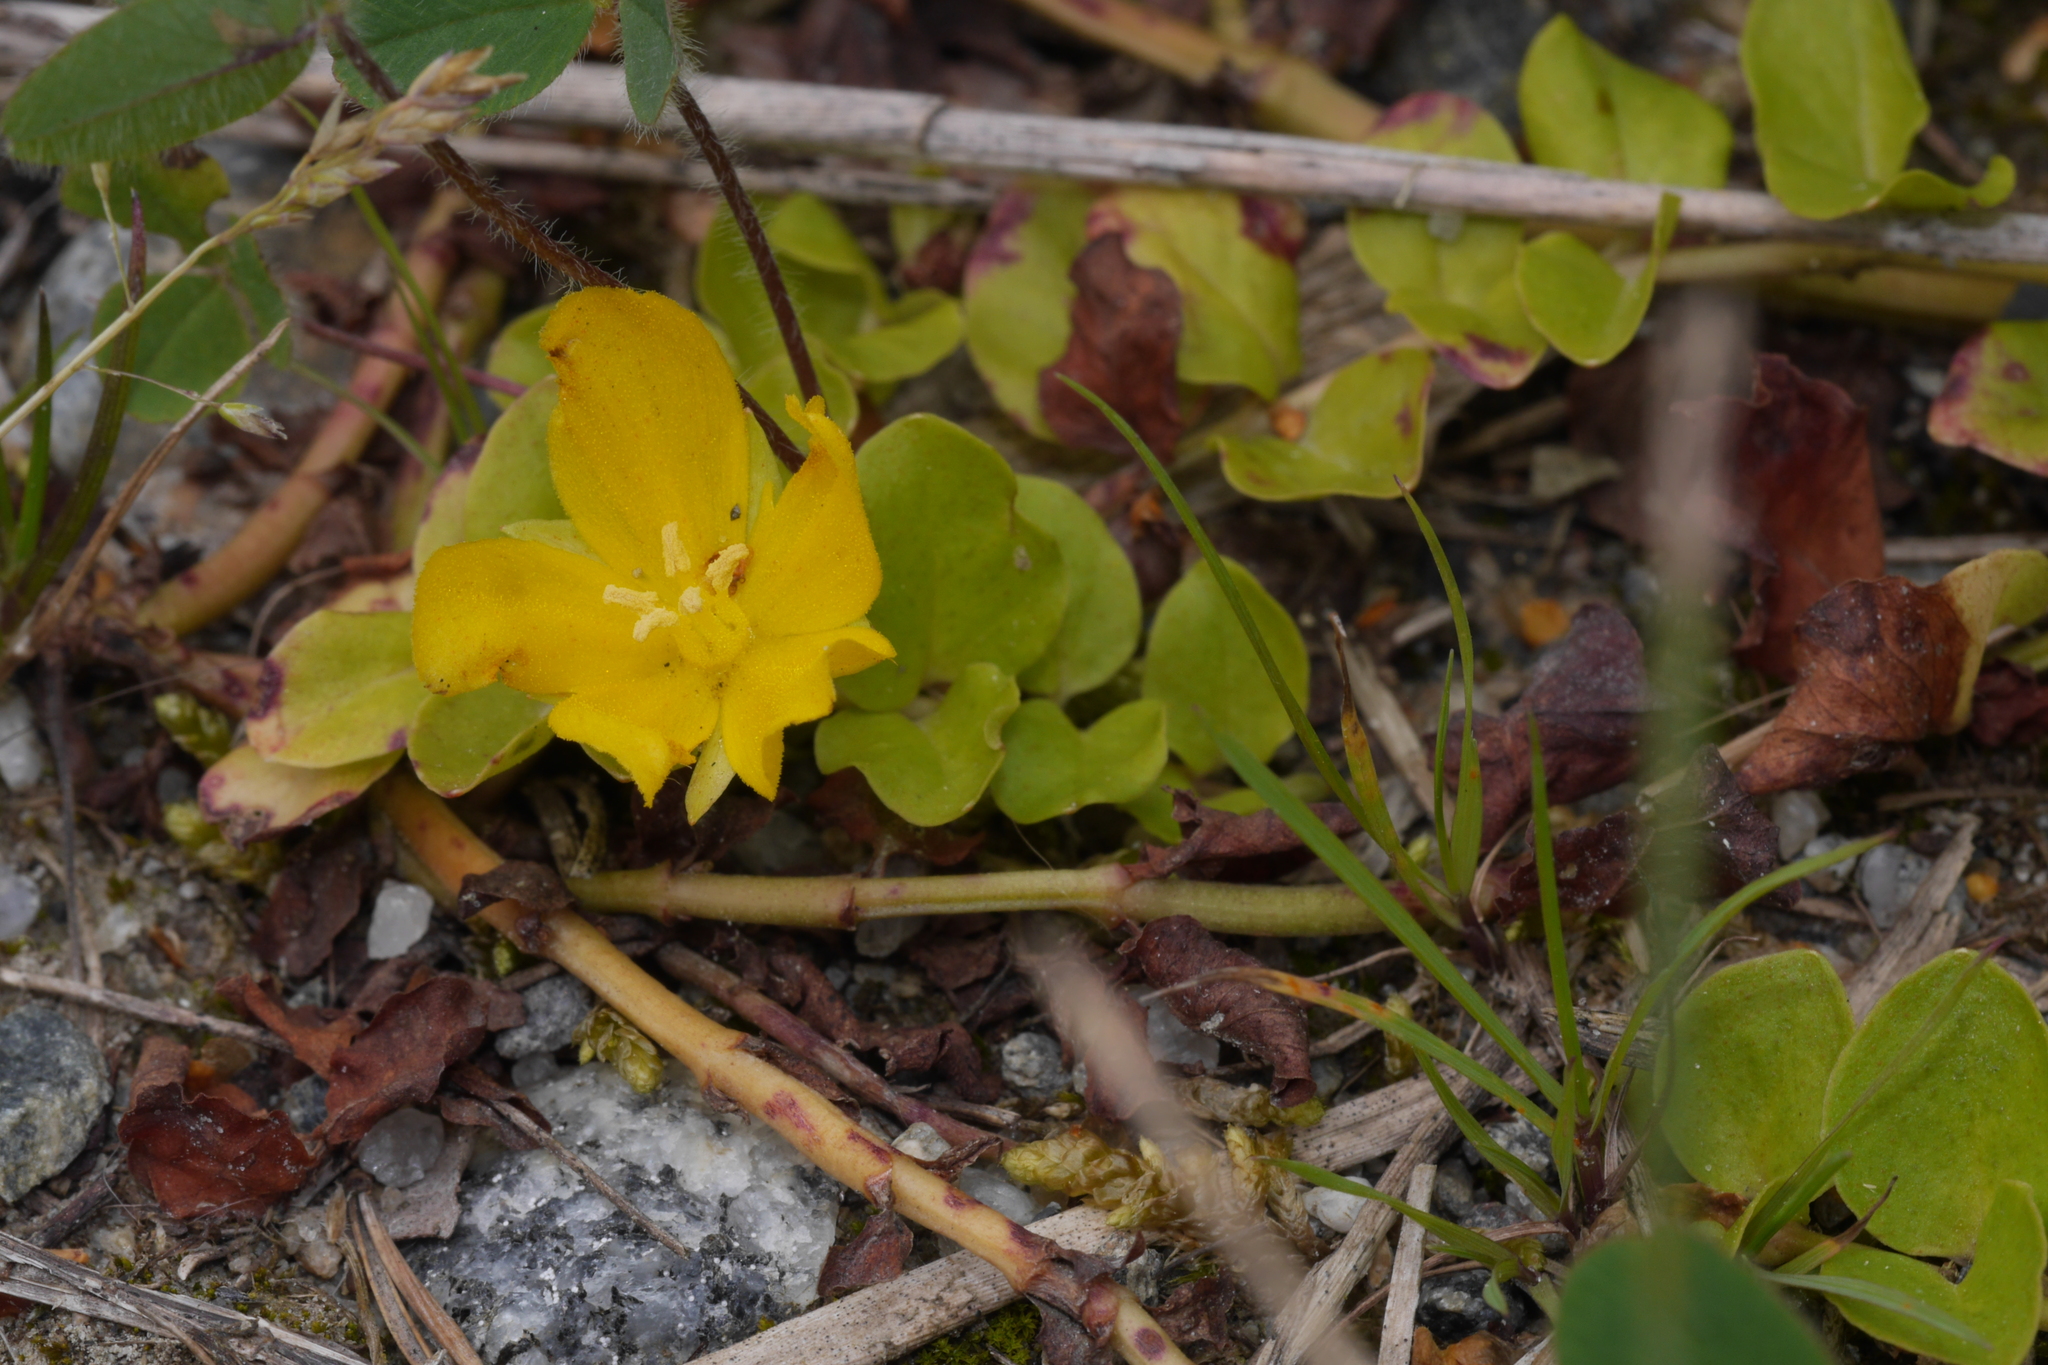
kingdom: Plantae
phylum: Tracheophyta
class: Magnoliopsida
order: Ericales
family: Primulaceae
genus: Lysimachia
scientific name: Lysimachia nummularia
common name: Moneywort
